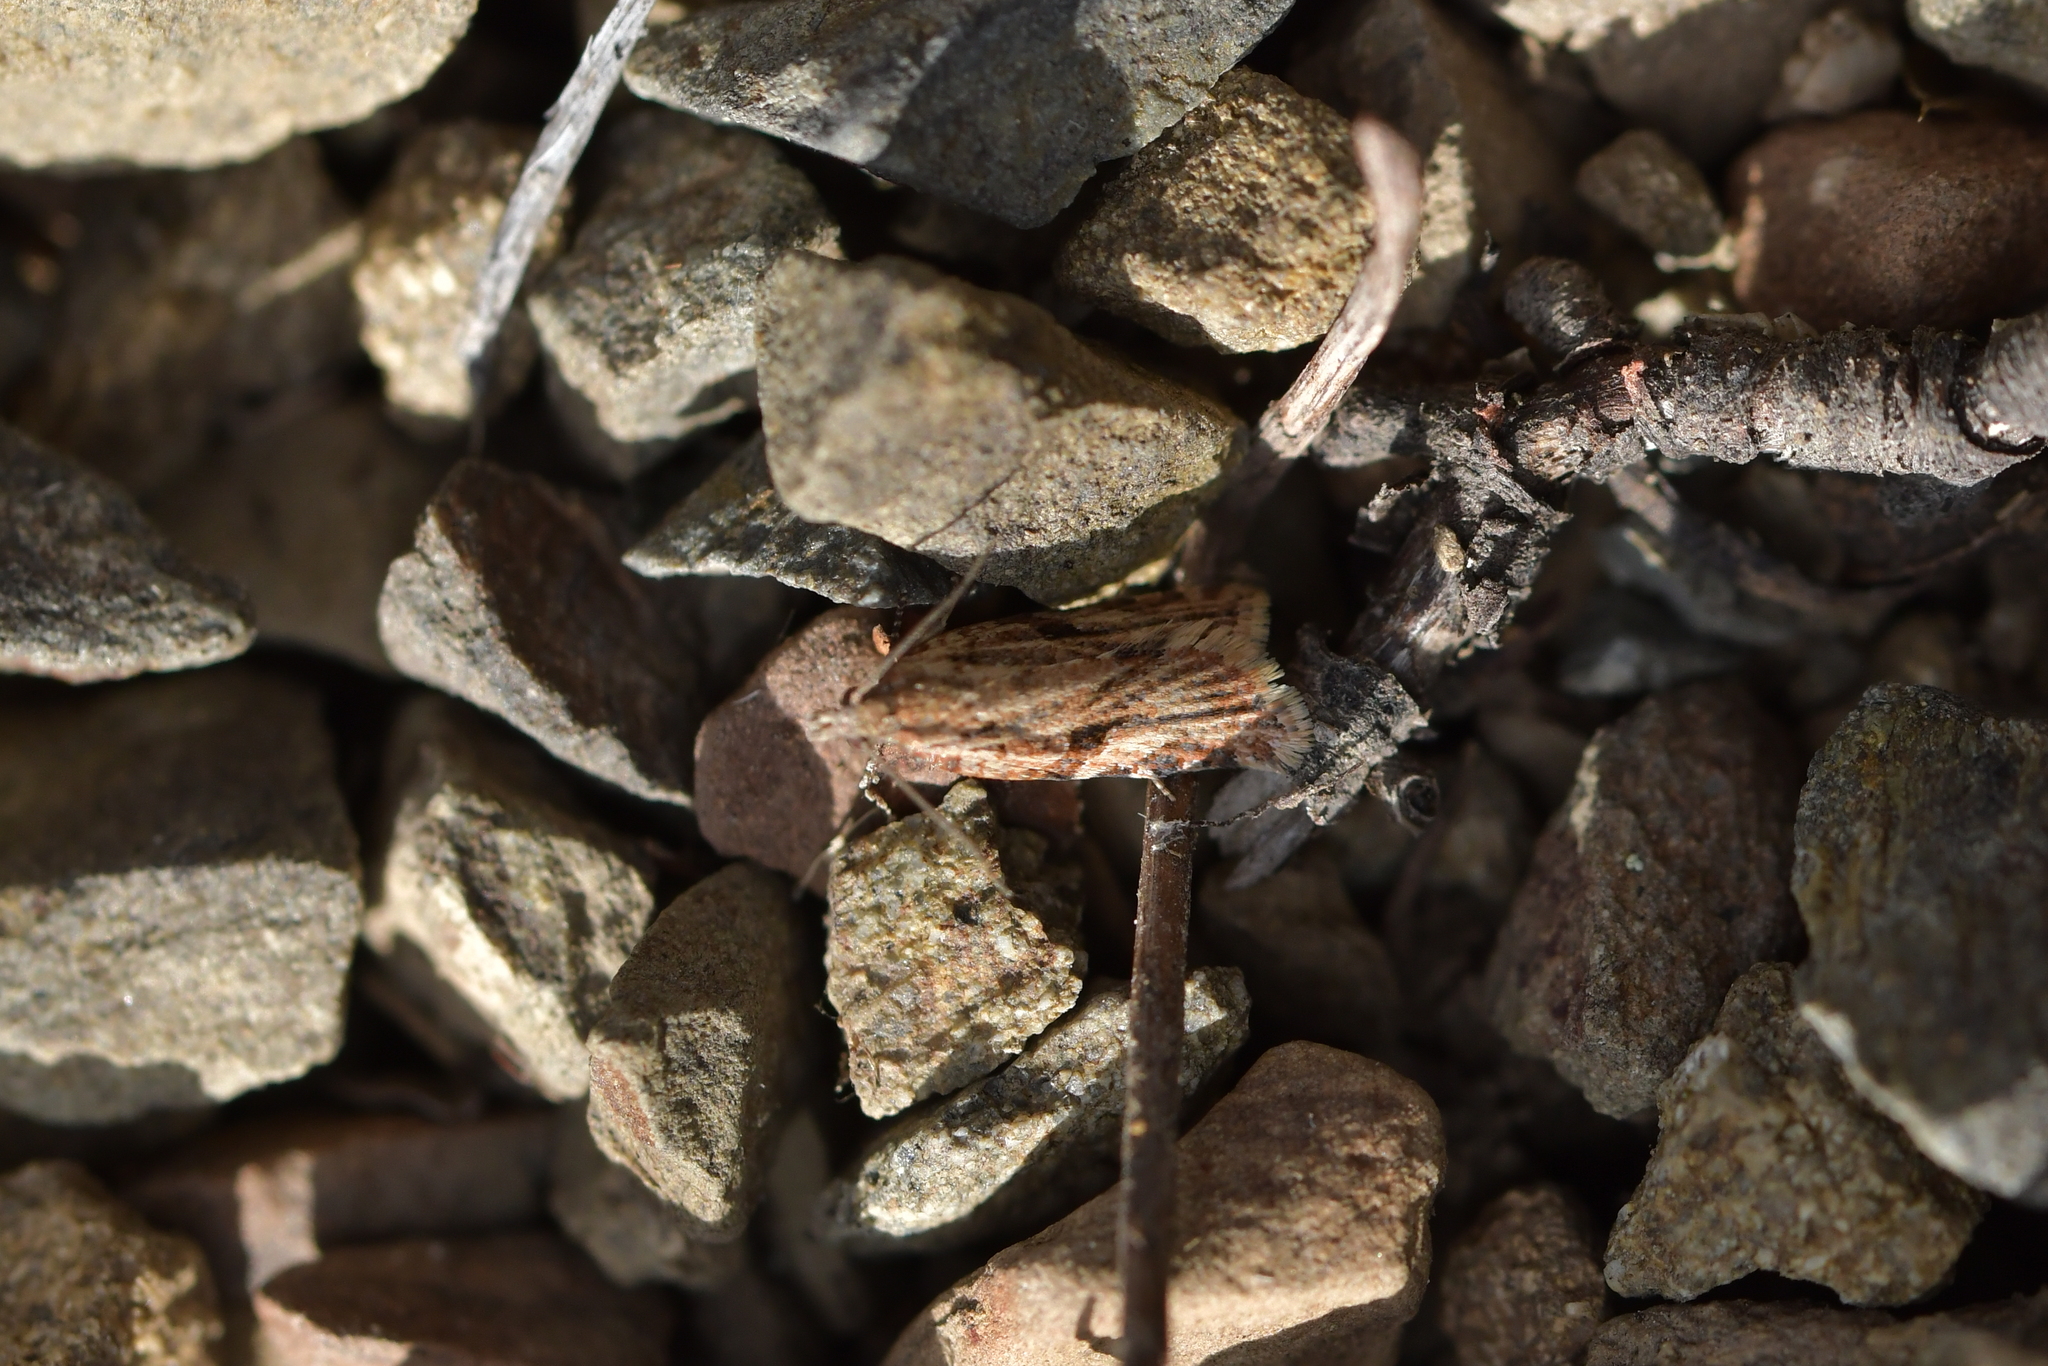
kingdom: Animalia
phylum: Arthropoda
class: Insecta
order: Lepidoptera
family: Tortricidae
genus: Capua
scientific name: Capua semiferana
